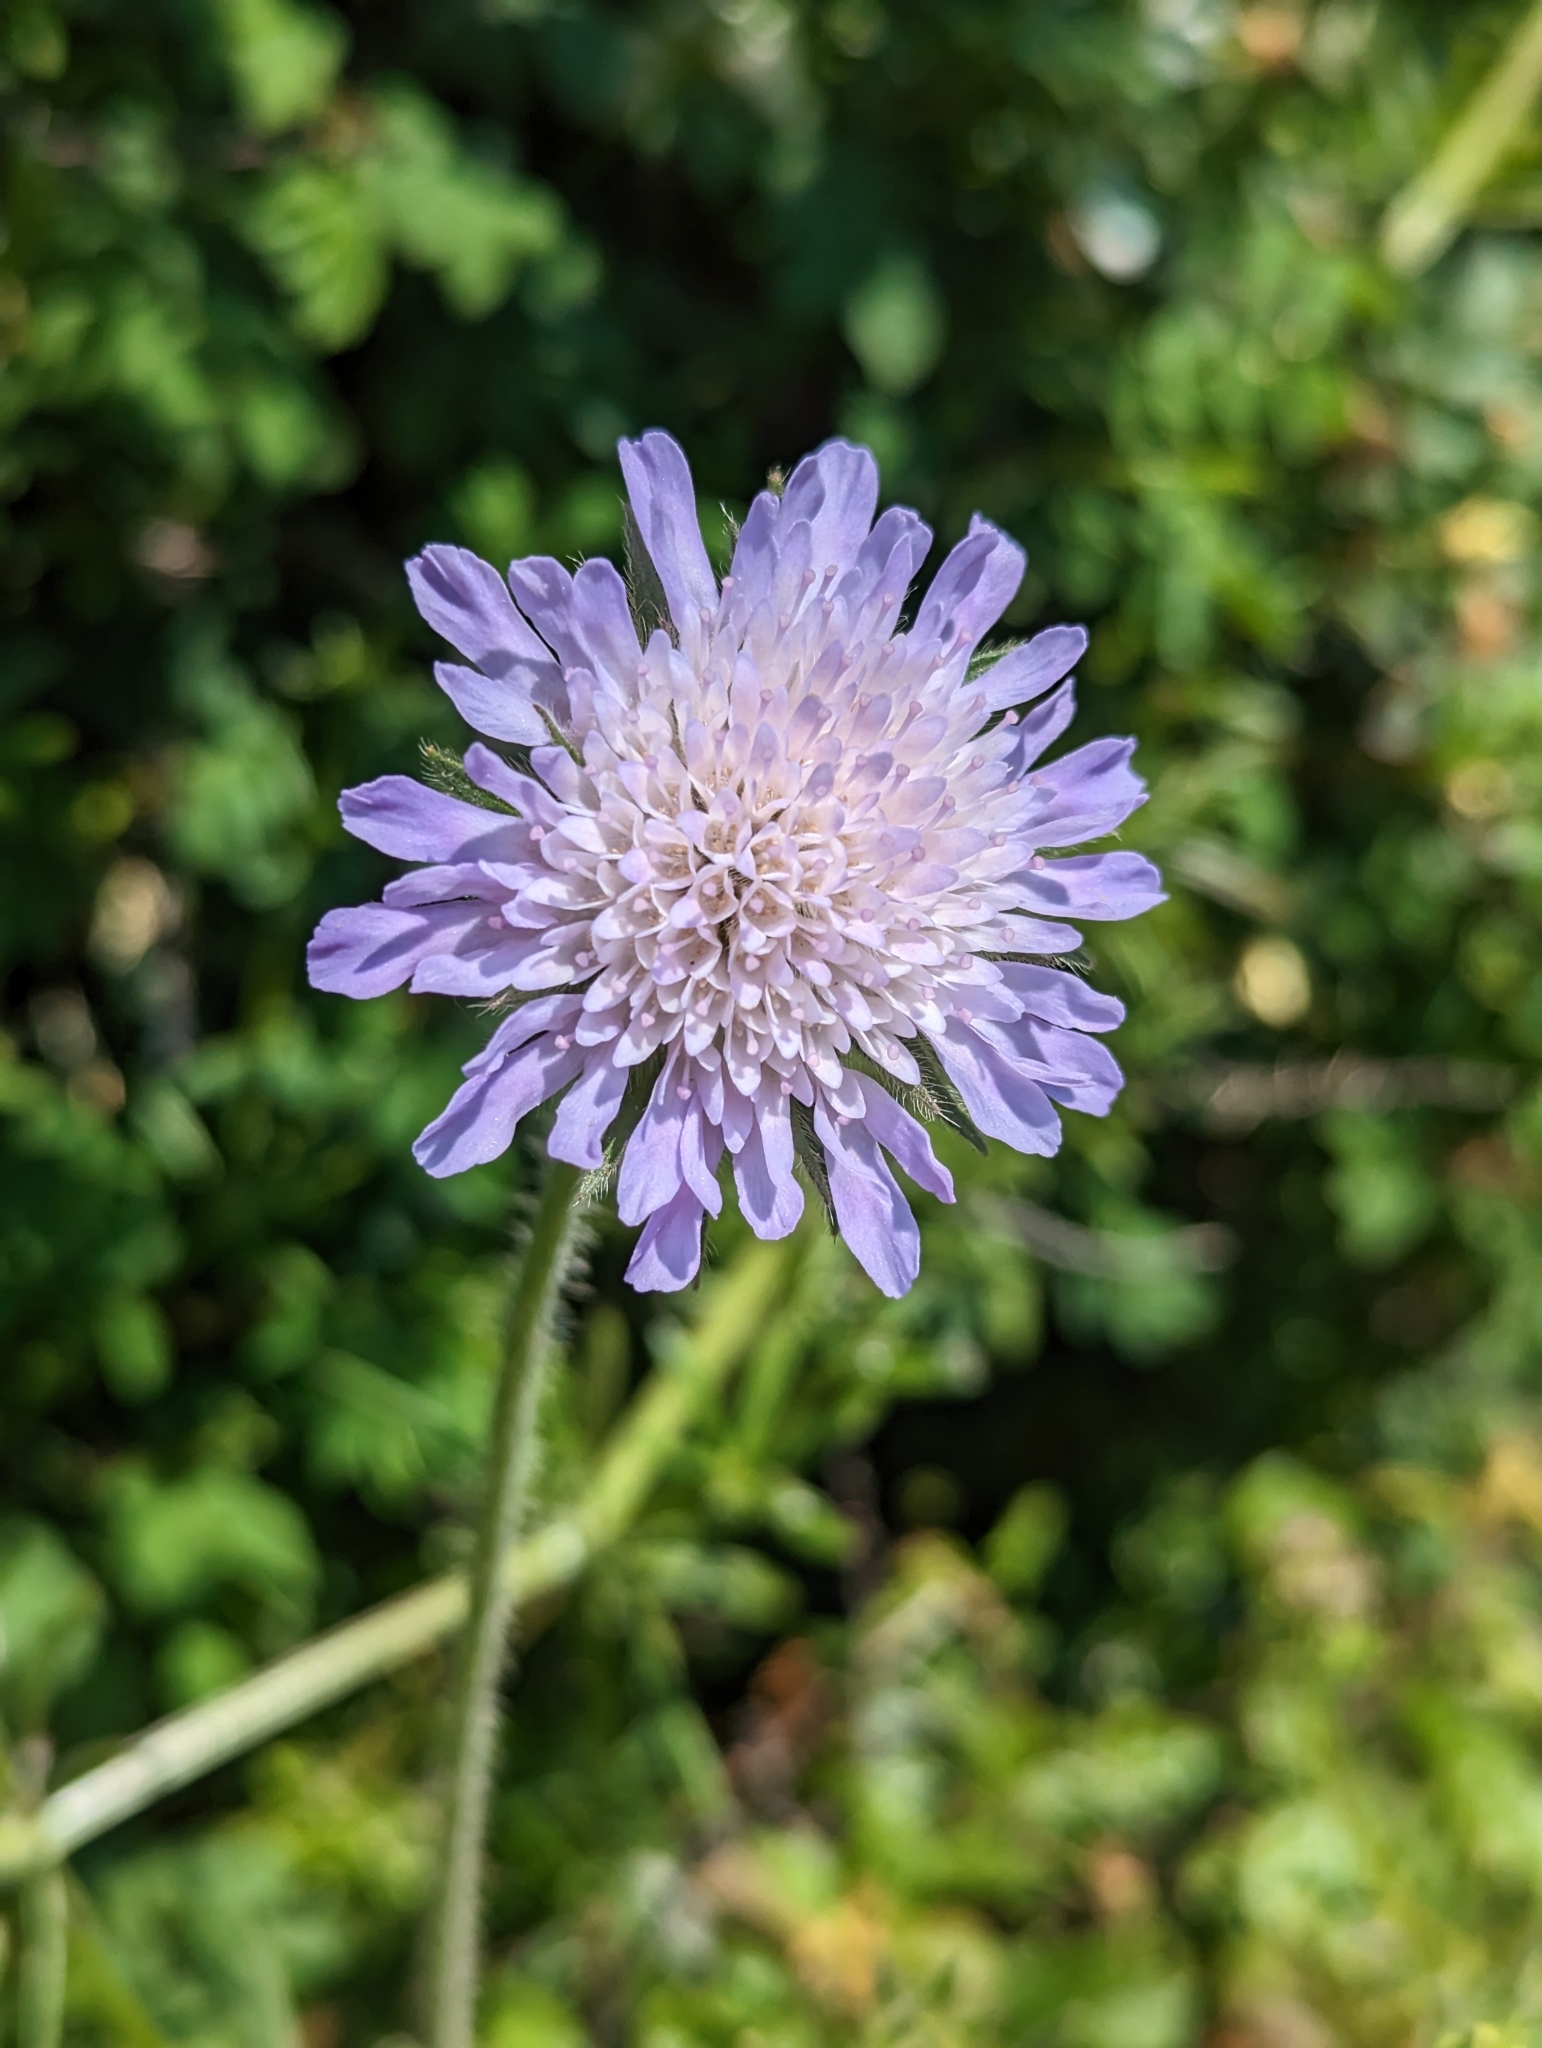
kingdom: Plantae
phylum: Tracheophyta
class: Magnoliopsida
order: Dipsacales
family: Caprifoliaceae
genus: Knautia
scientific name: Knautia arvensis
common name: Field scabiosa
